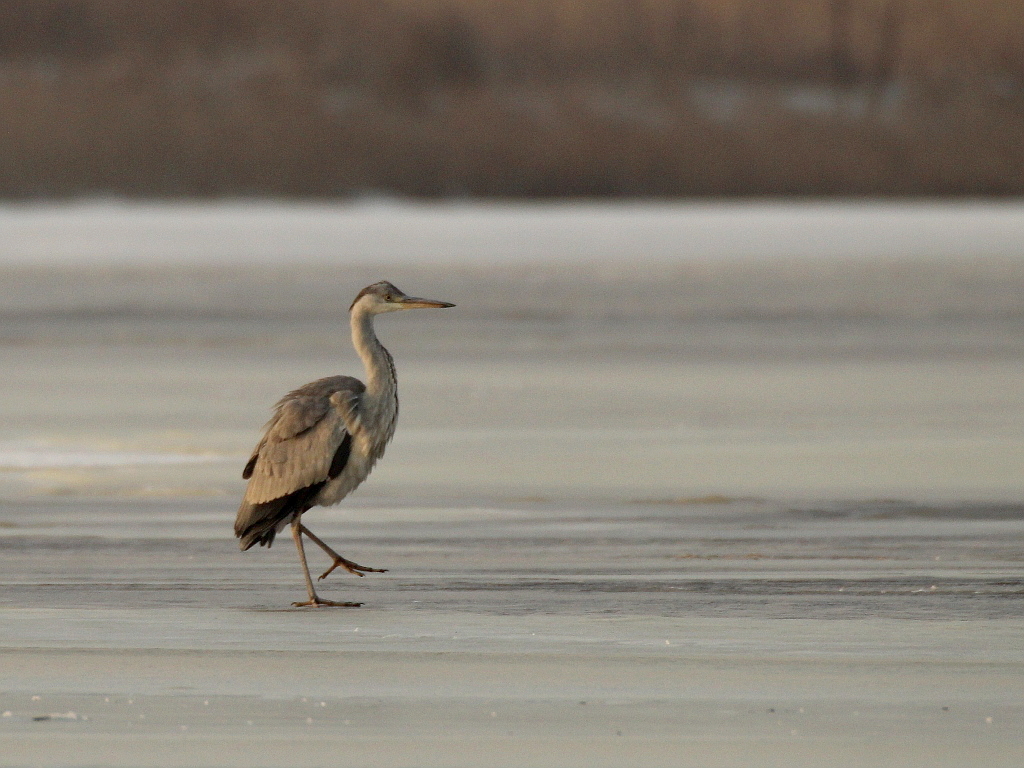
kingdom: Animalia
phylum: Chordata
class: Aves
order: Pelecaniformes
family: Ardeidae
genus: Ardea
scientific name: Ardea cinerea
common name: Grey heron
